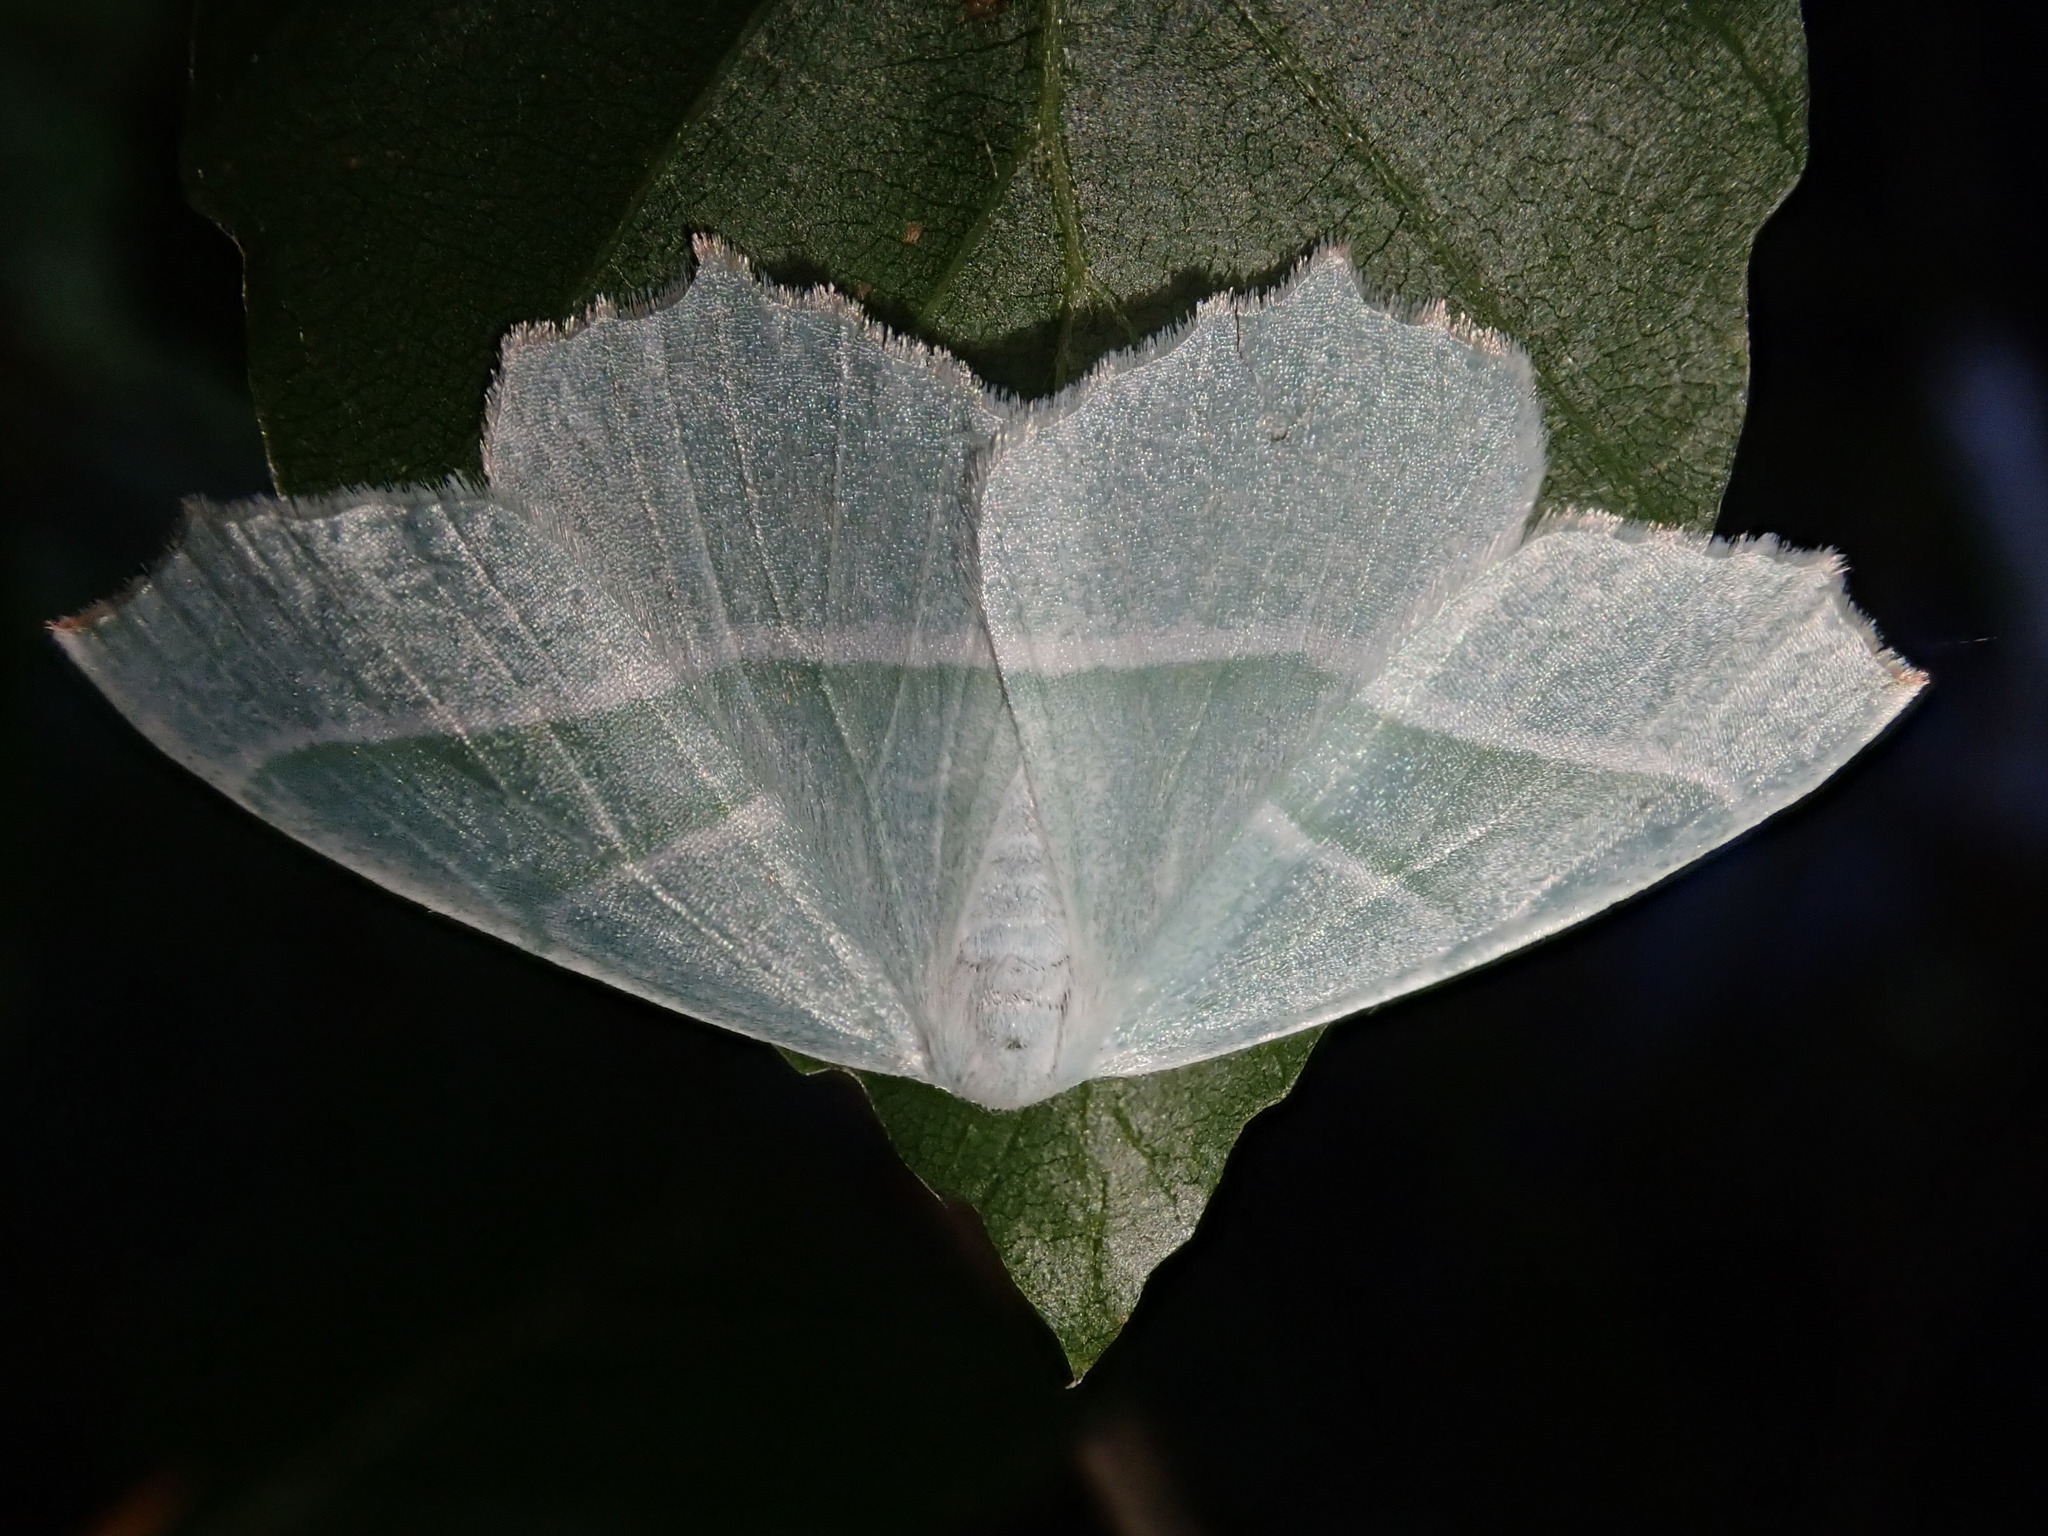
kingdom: Animalia
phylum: Arthropoda
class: Insecta
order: Lepidoptera
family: Geometridae
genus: Campaea
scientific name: Campaea margaritaria
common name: Light emerald
